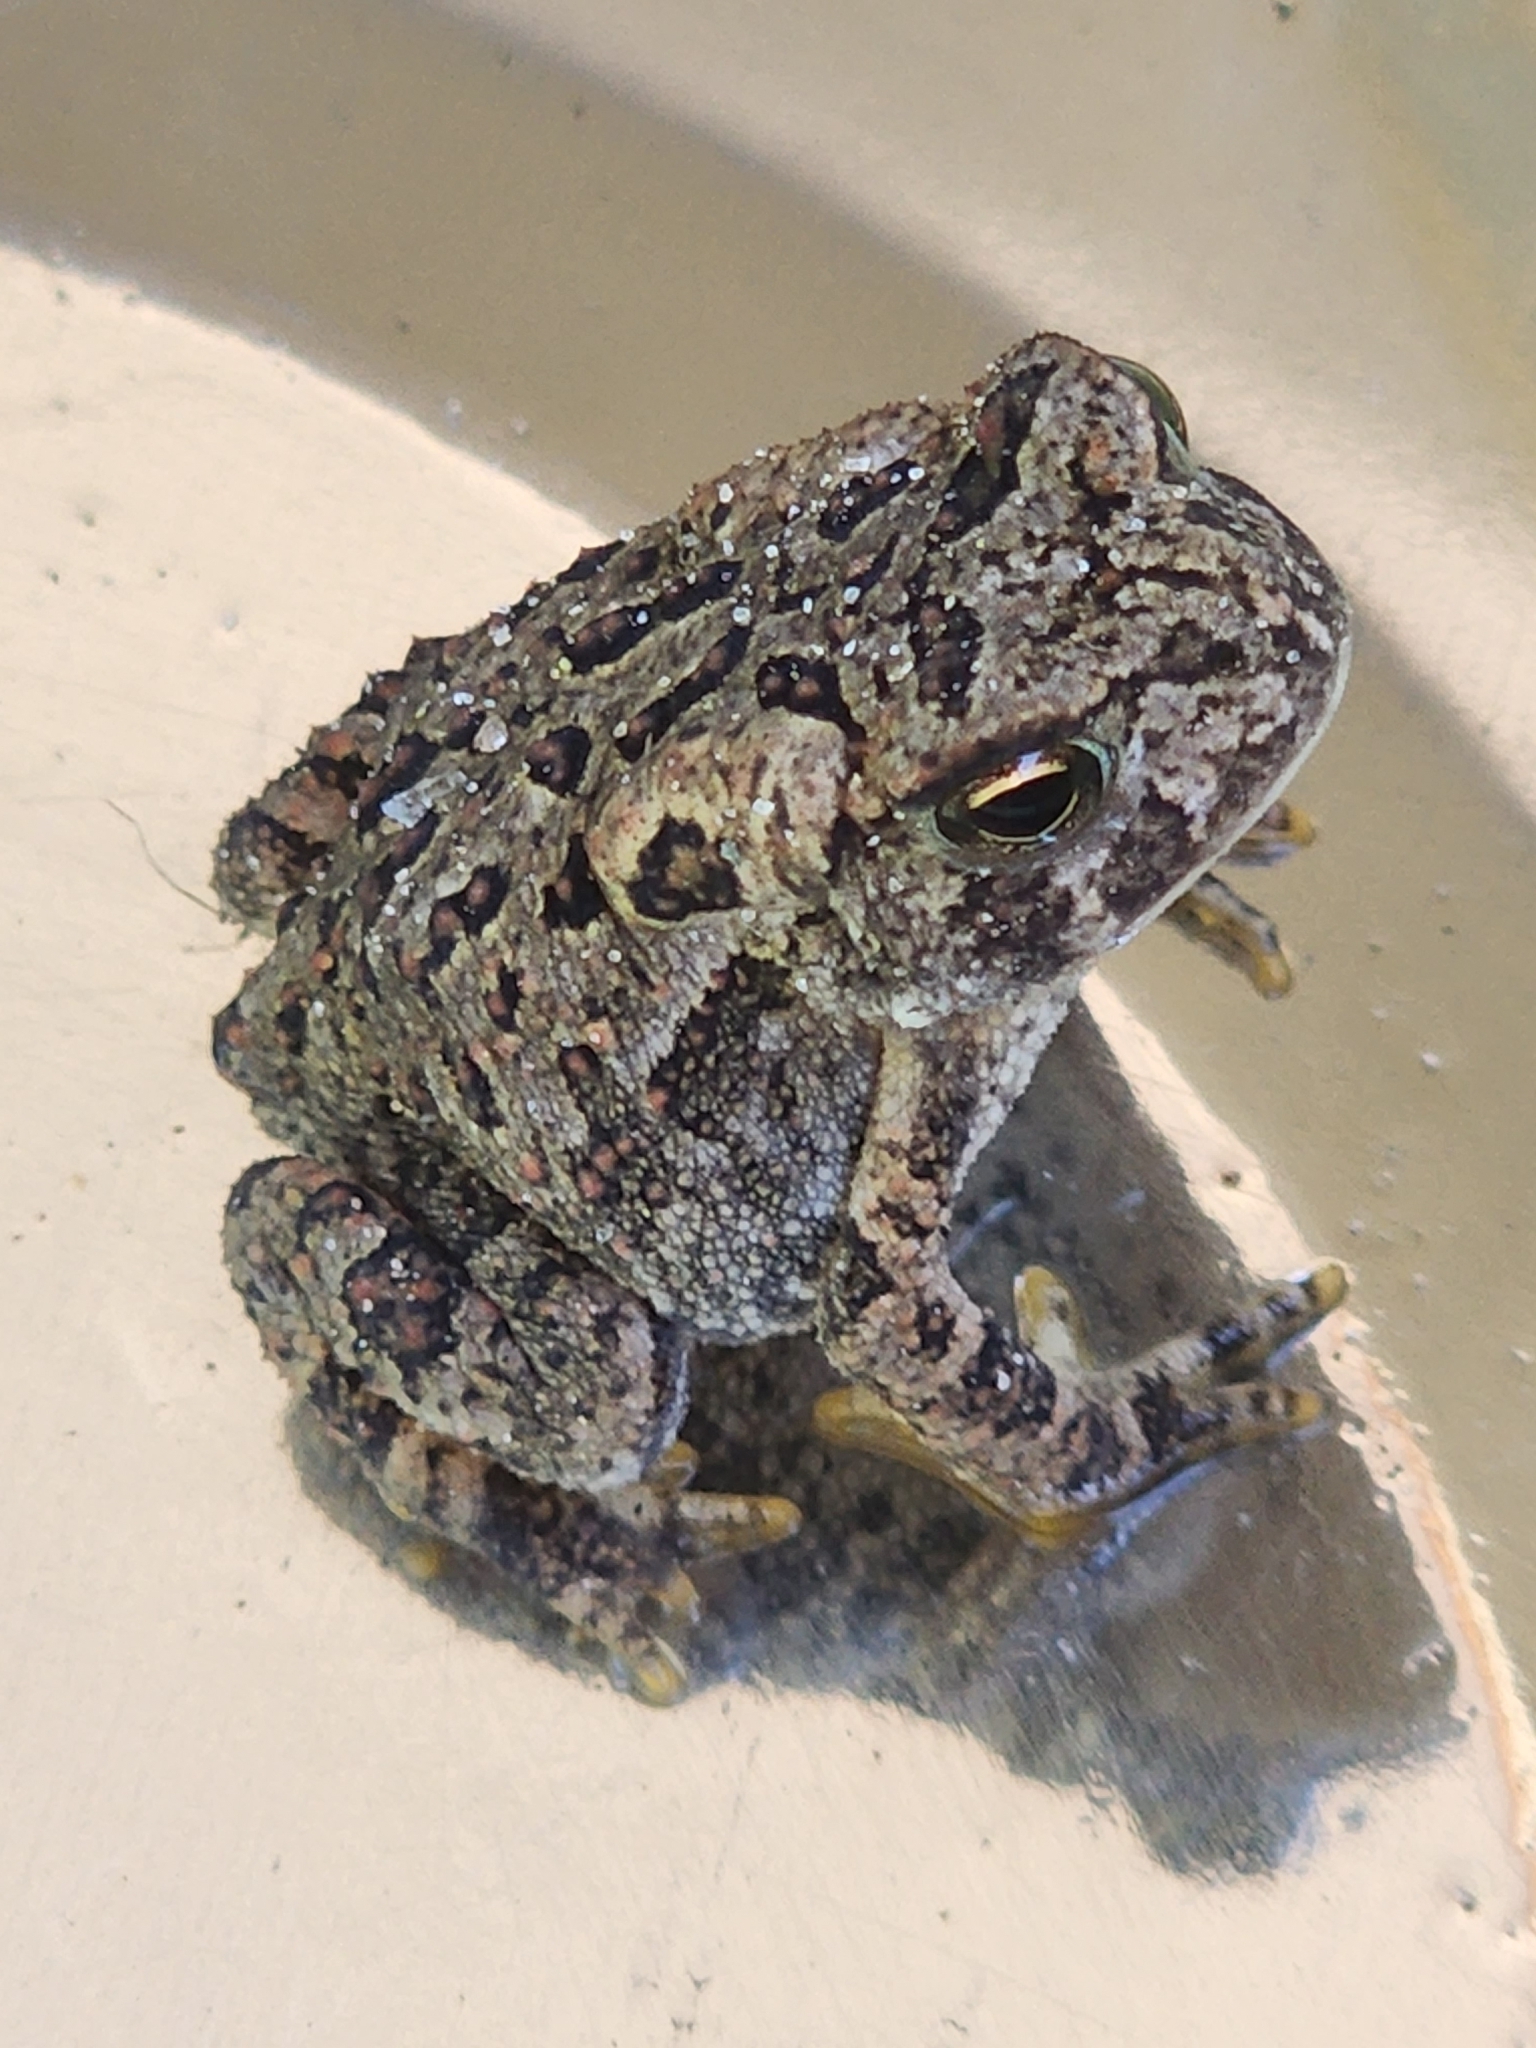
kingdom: Animalia
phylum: Chordata
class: Amphibia
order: Anura
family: Bufonidae
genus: Anaxyrus
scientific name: Anaxyrus americanus
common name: American toad
